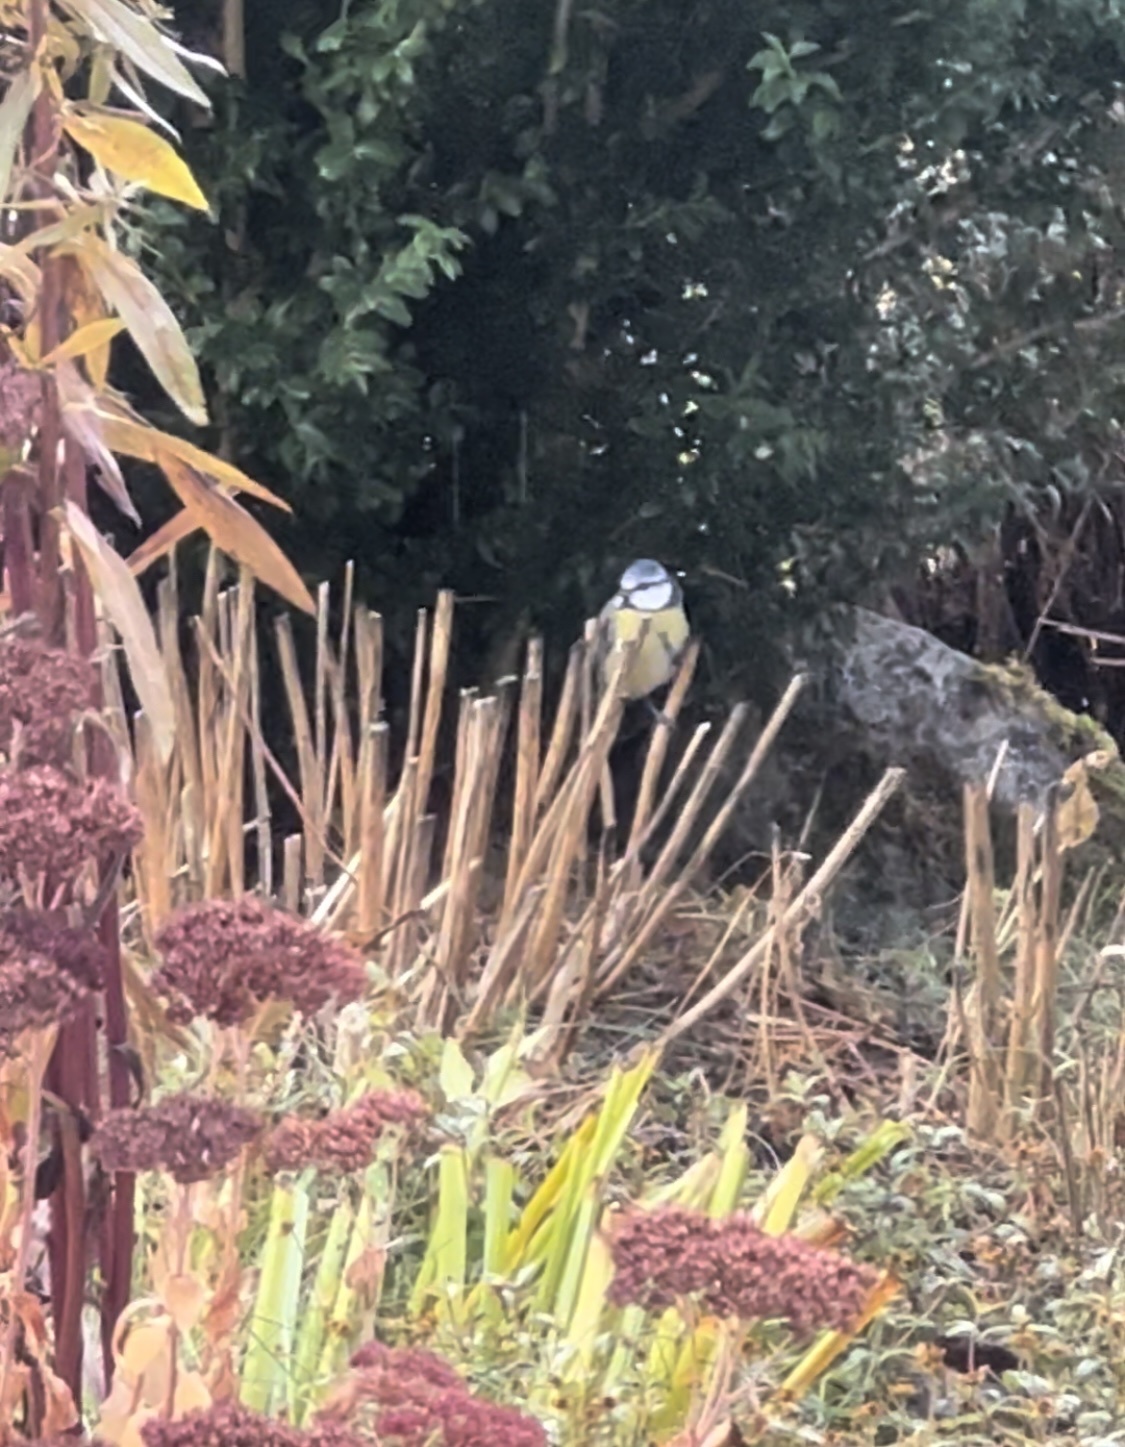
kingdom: Animalia
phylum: Chordata
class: Aves
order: Passeriformes
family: Paridae
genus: Cyanistes
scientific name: Cyanistes caeruleus
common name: Eurasian blue tit
